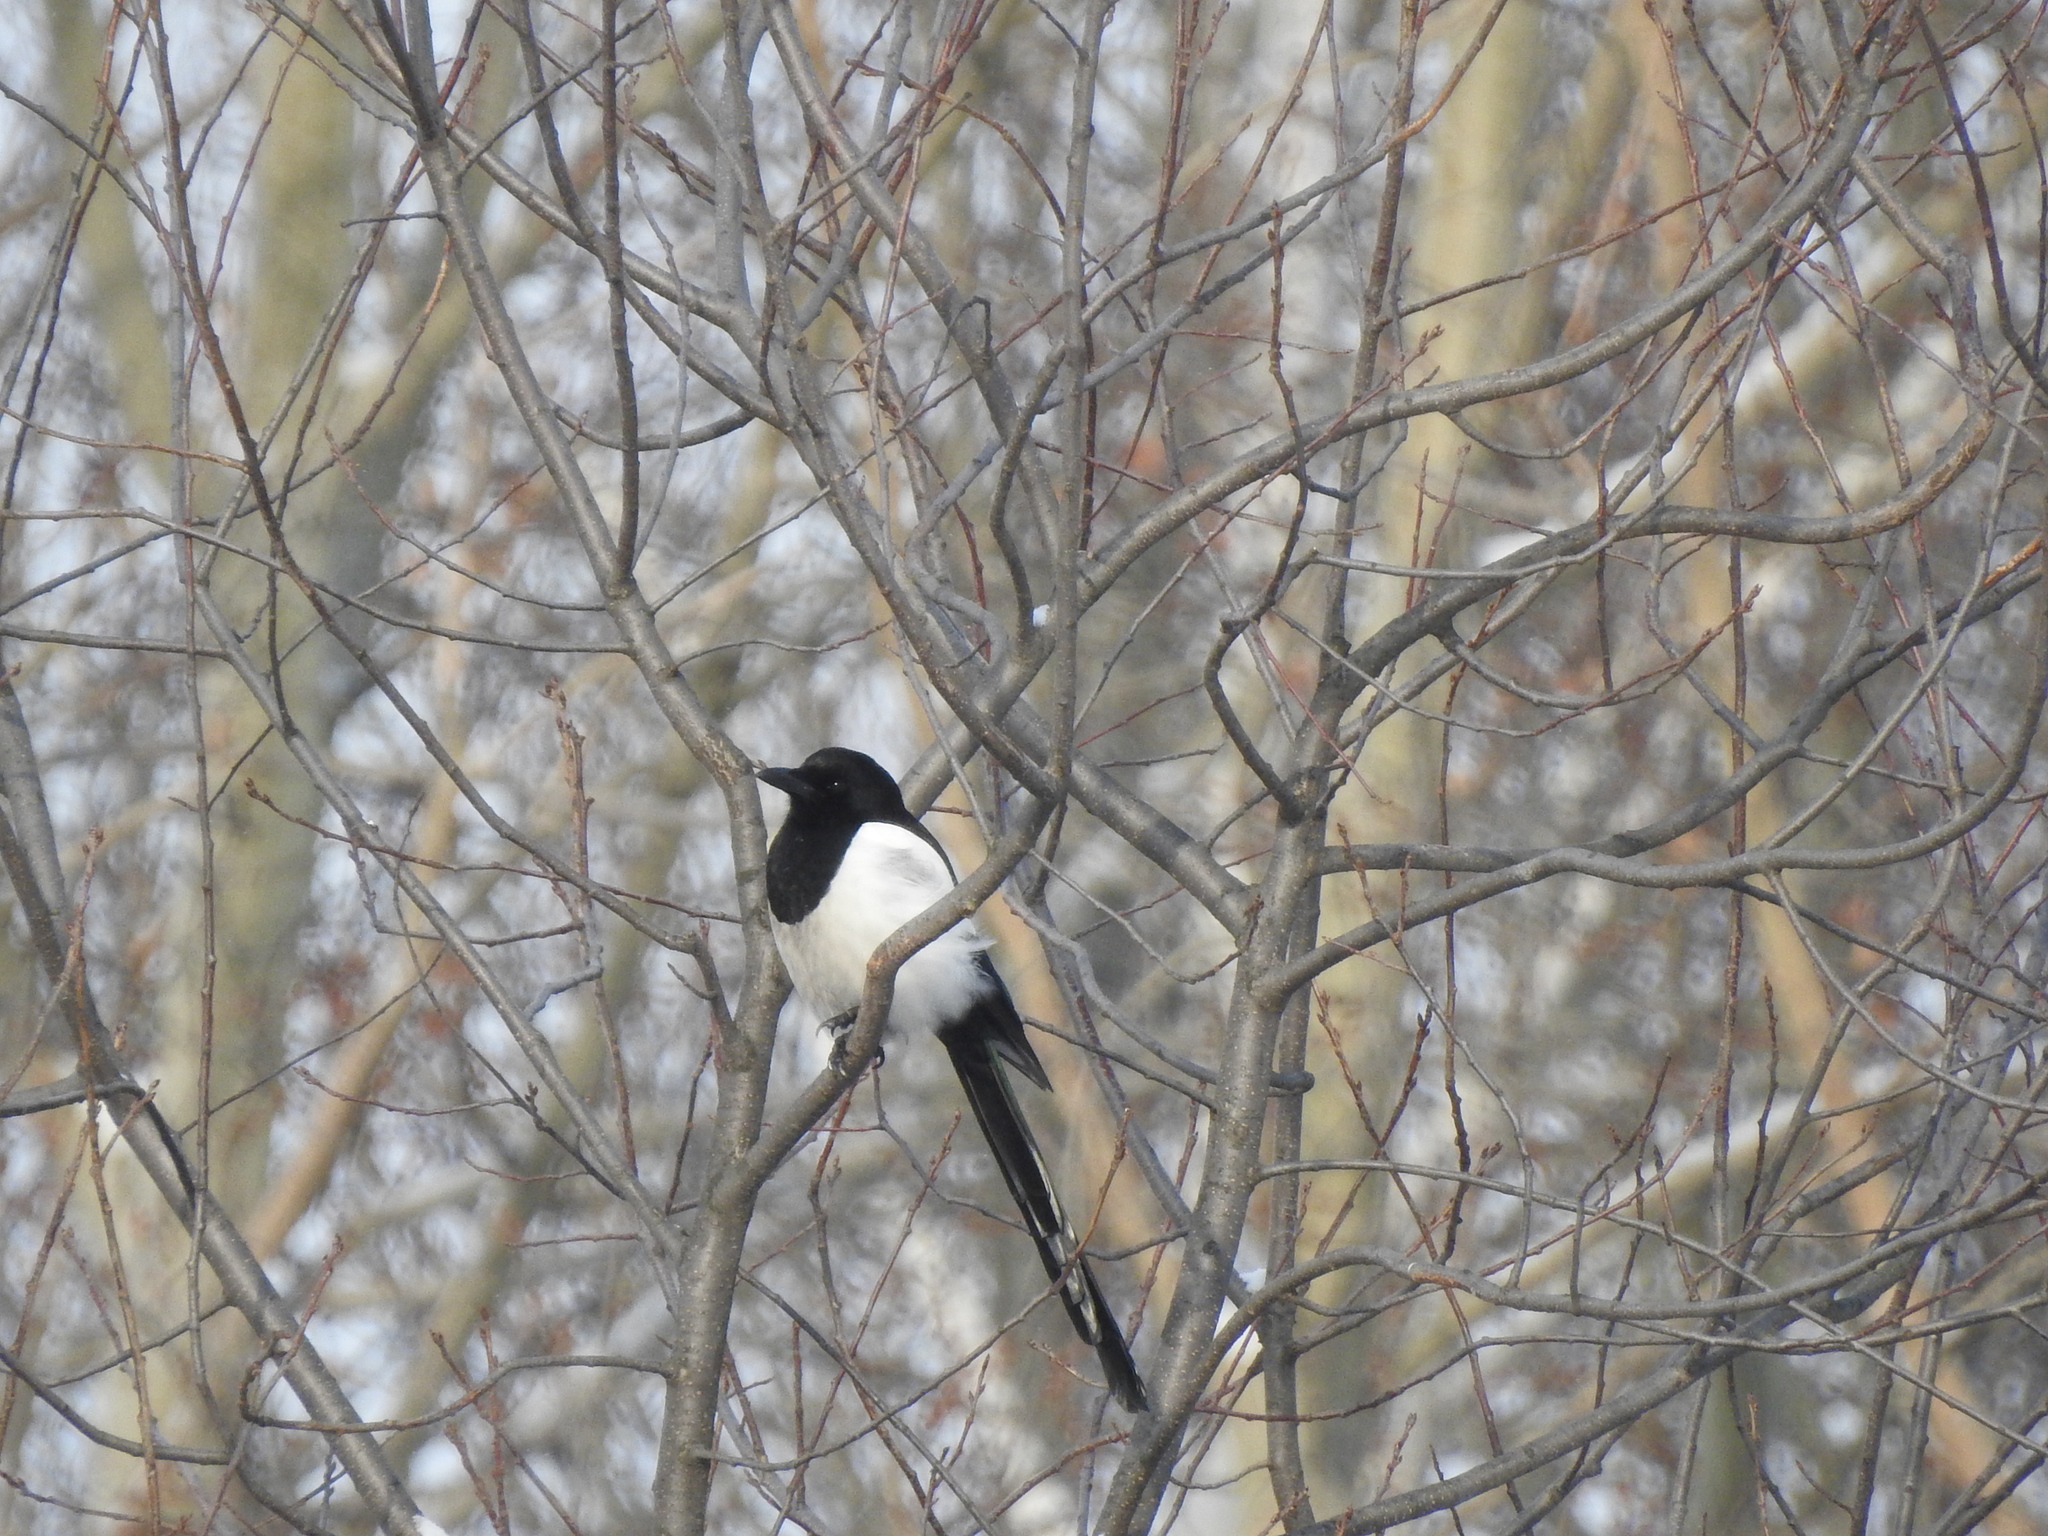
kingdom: Animalia
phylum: Chordata
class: Aves
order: Passeriformes
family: Corvidae
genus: Pica
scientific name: Pica pica
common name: Eurasian magpie
